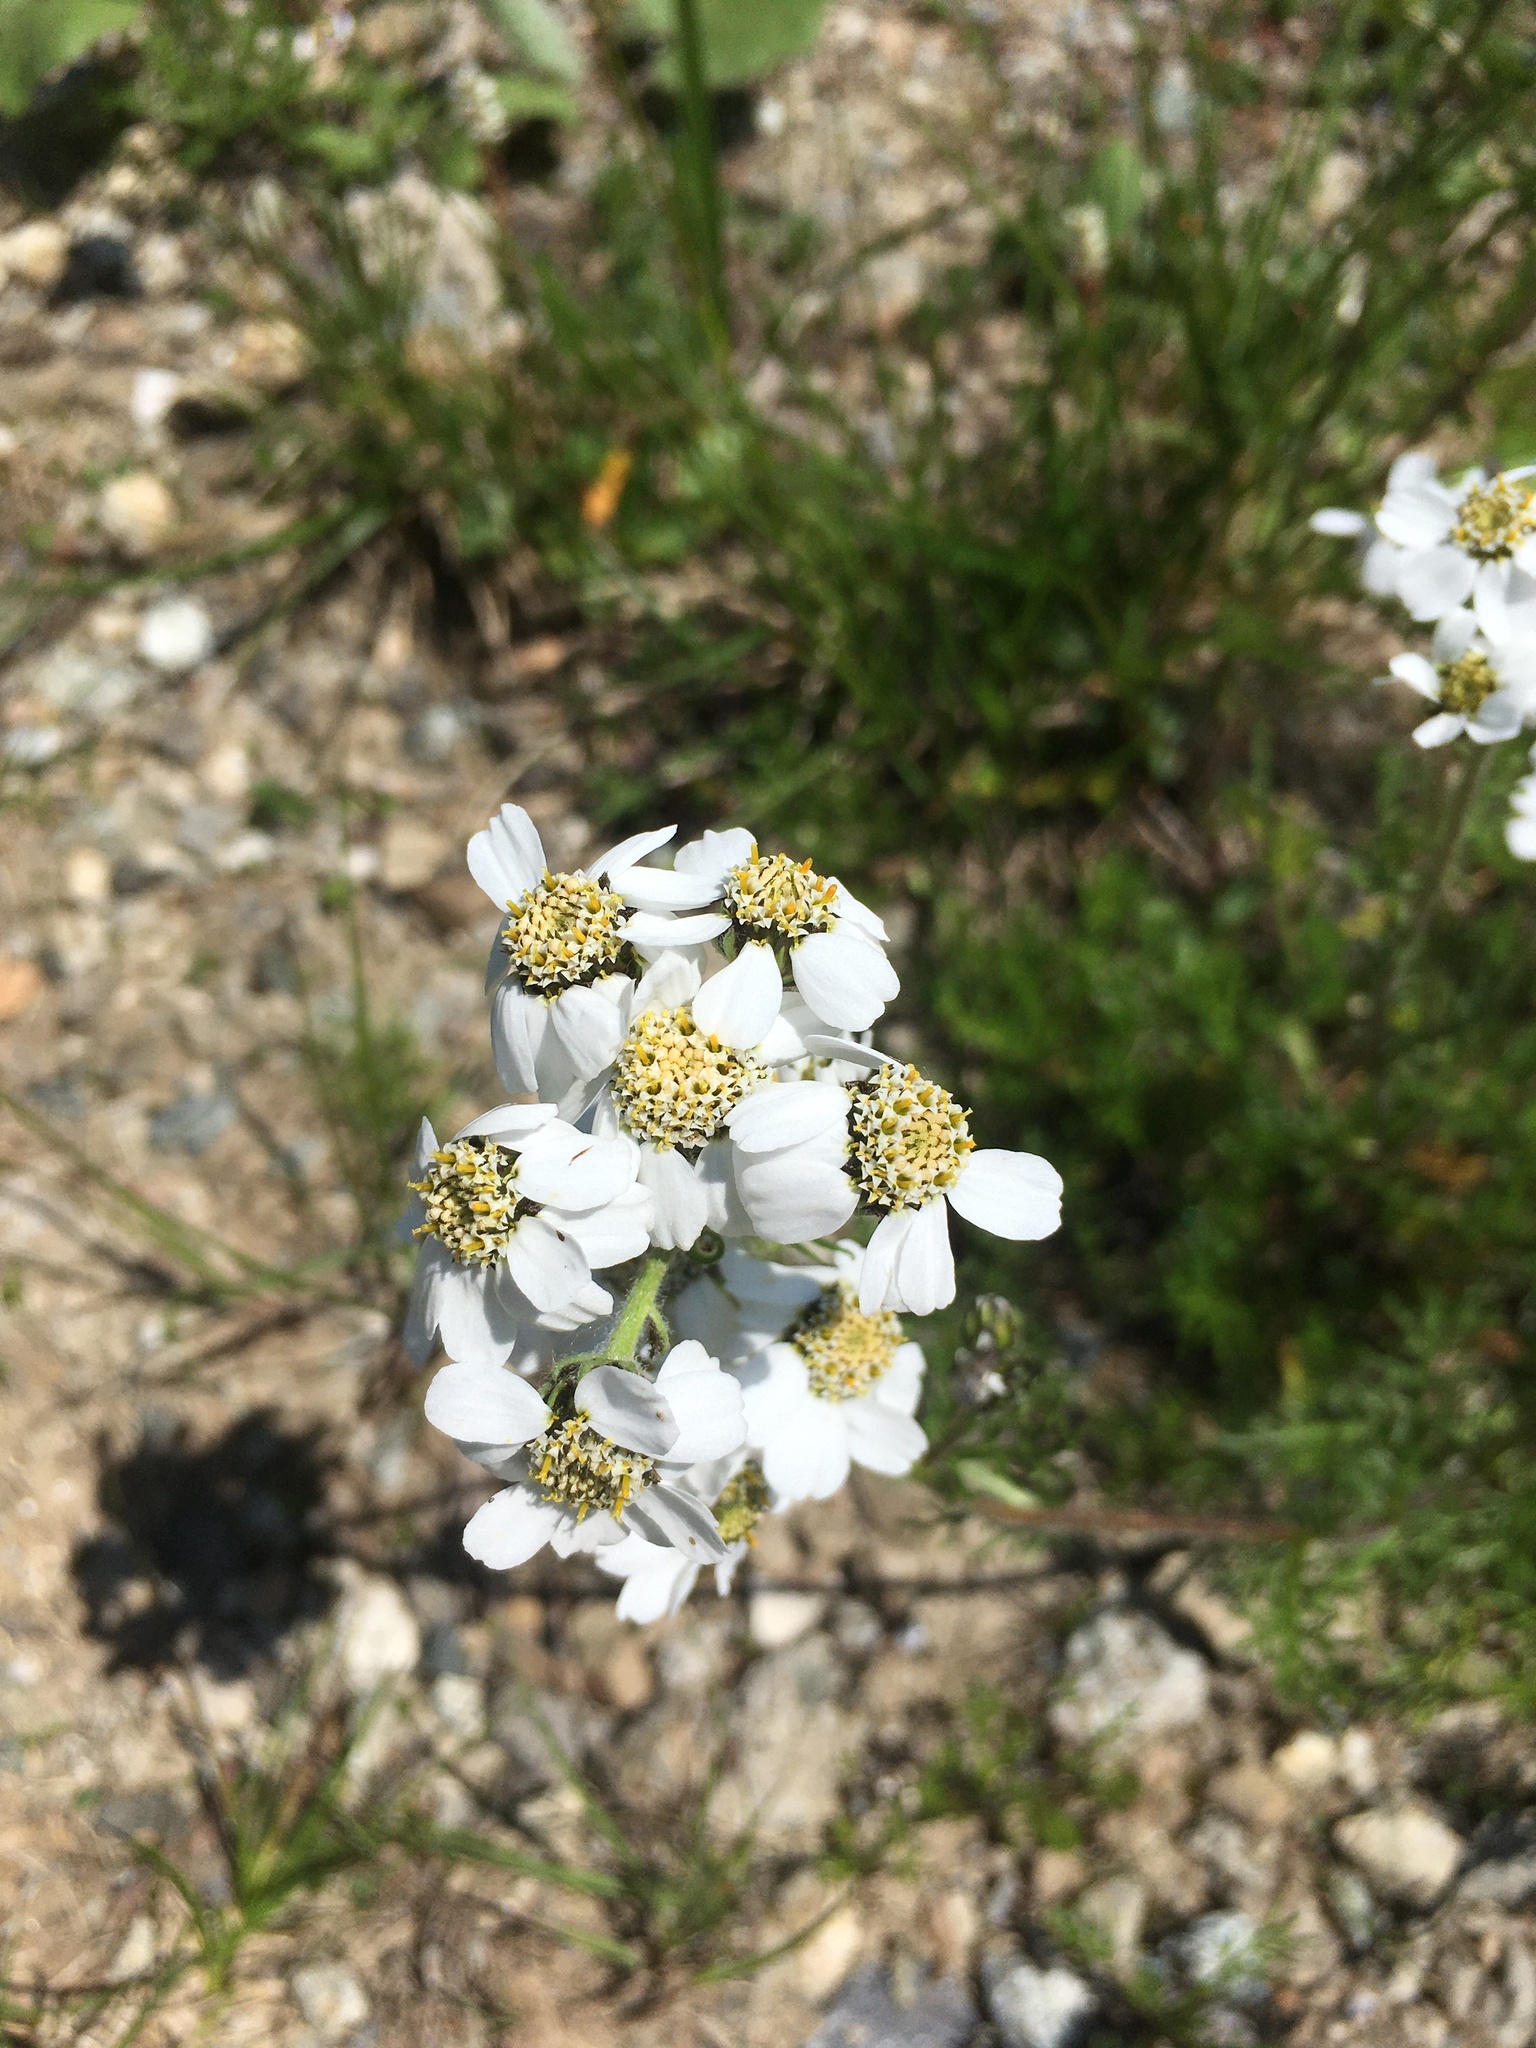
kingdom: Plantae
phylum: Tracheophyta
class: Magnoliopsida
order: Asterales
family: Asteraceae
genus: Achillea
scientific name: Achillea atrata
